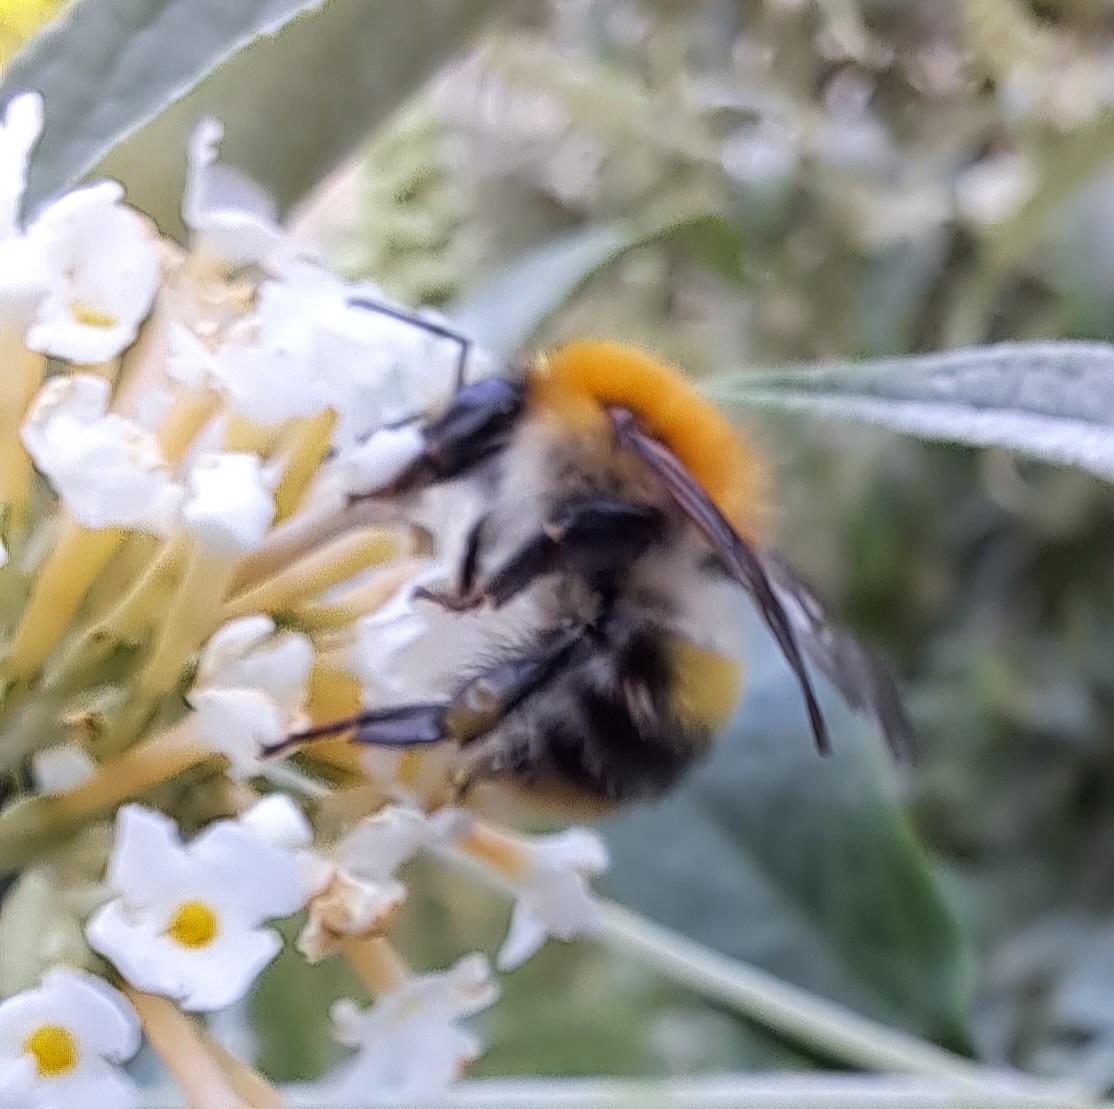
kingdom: Animalia
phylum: Arthropoda
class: Insecta
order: Hymenoptera
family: Apidae
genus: Bombus
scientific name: Bombus pascuorum
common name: Common carder bee
